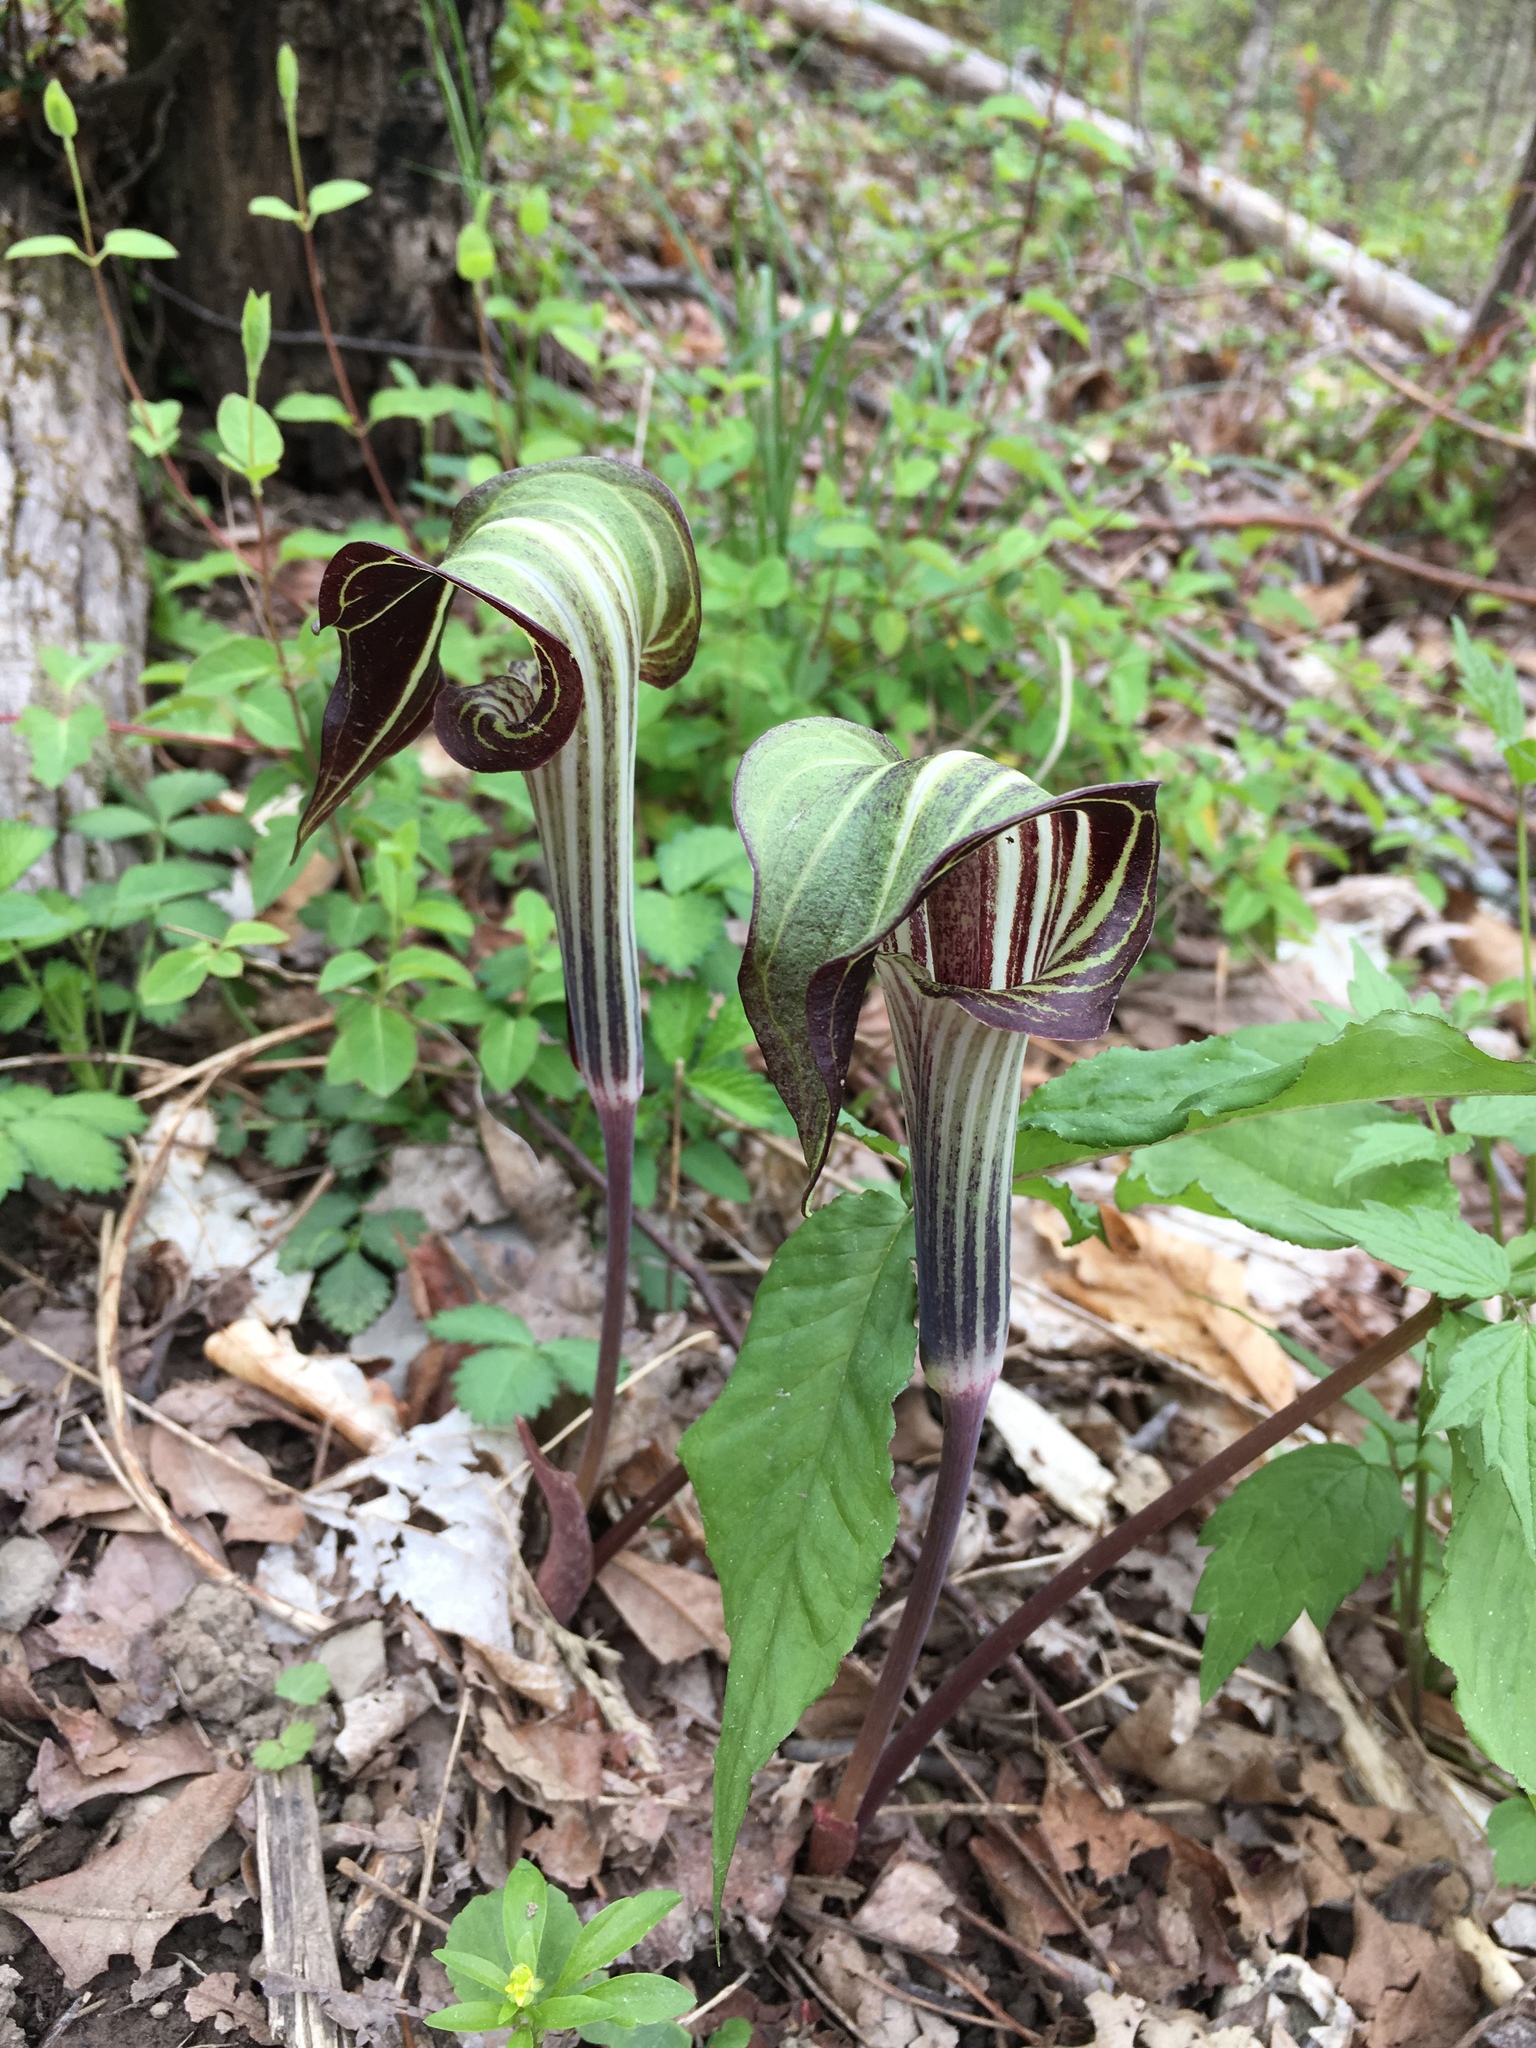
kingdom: Plantae
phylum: Tracheophyta
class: Liliopsida
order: Alismatales
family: Araceae
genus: Arisaema
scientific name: Arisaema triphyllum
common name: Jack-in-the-pulpit
